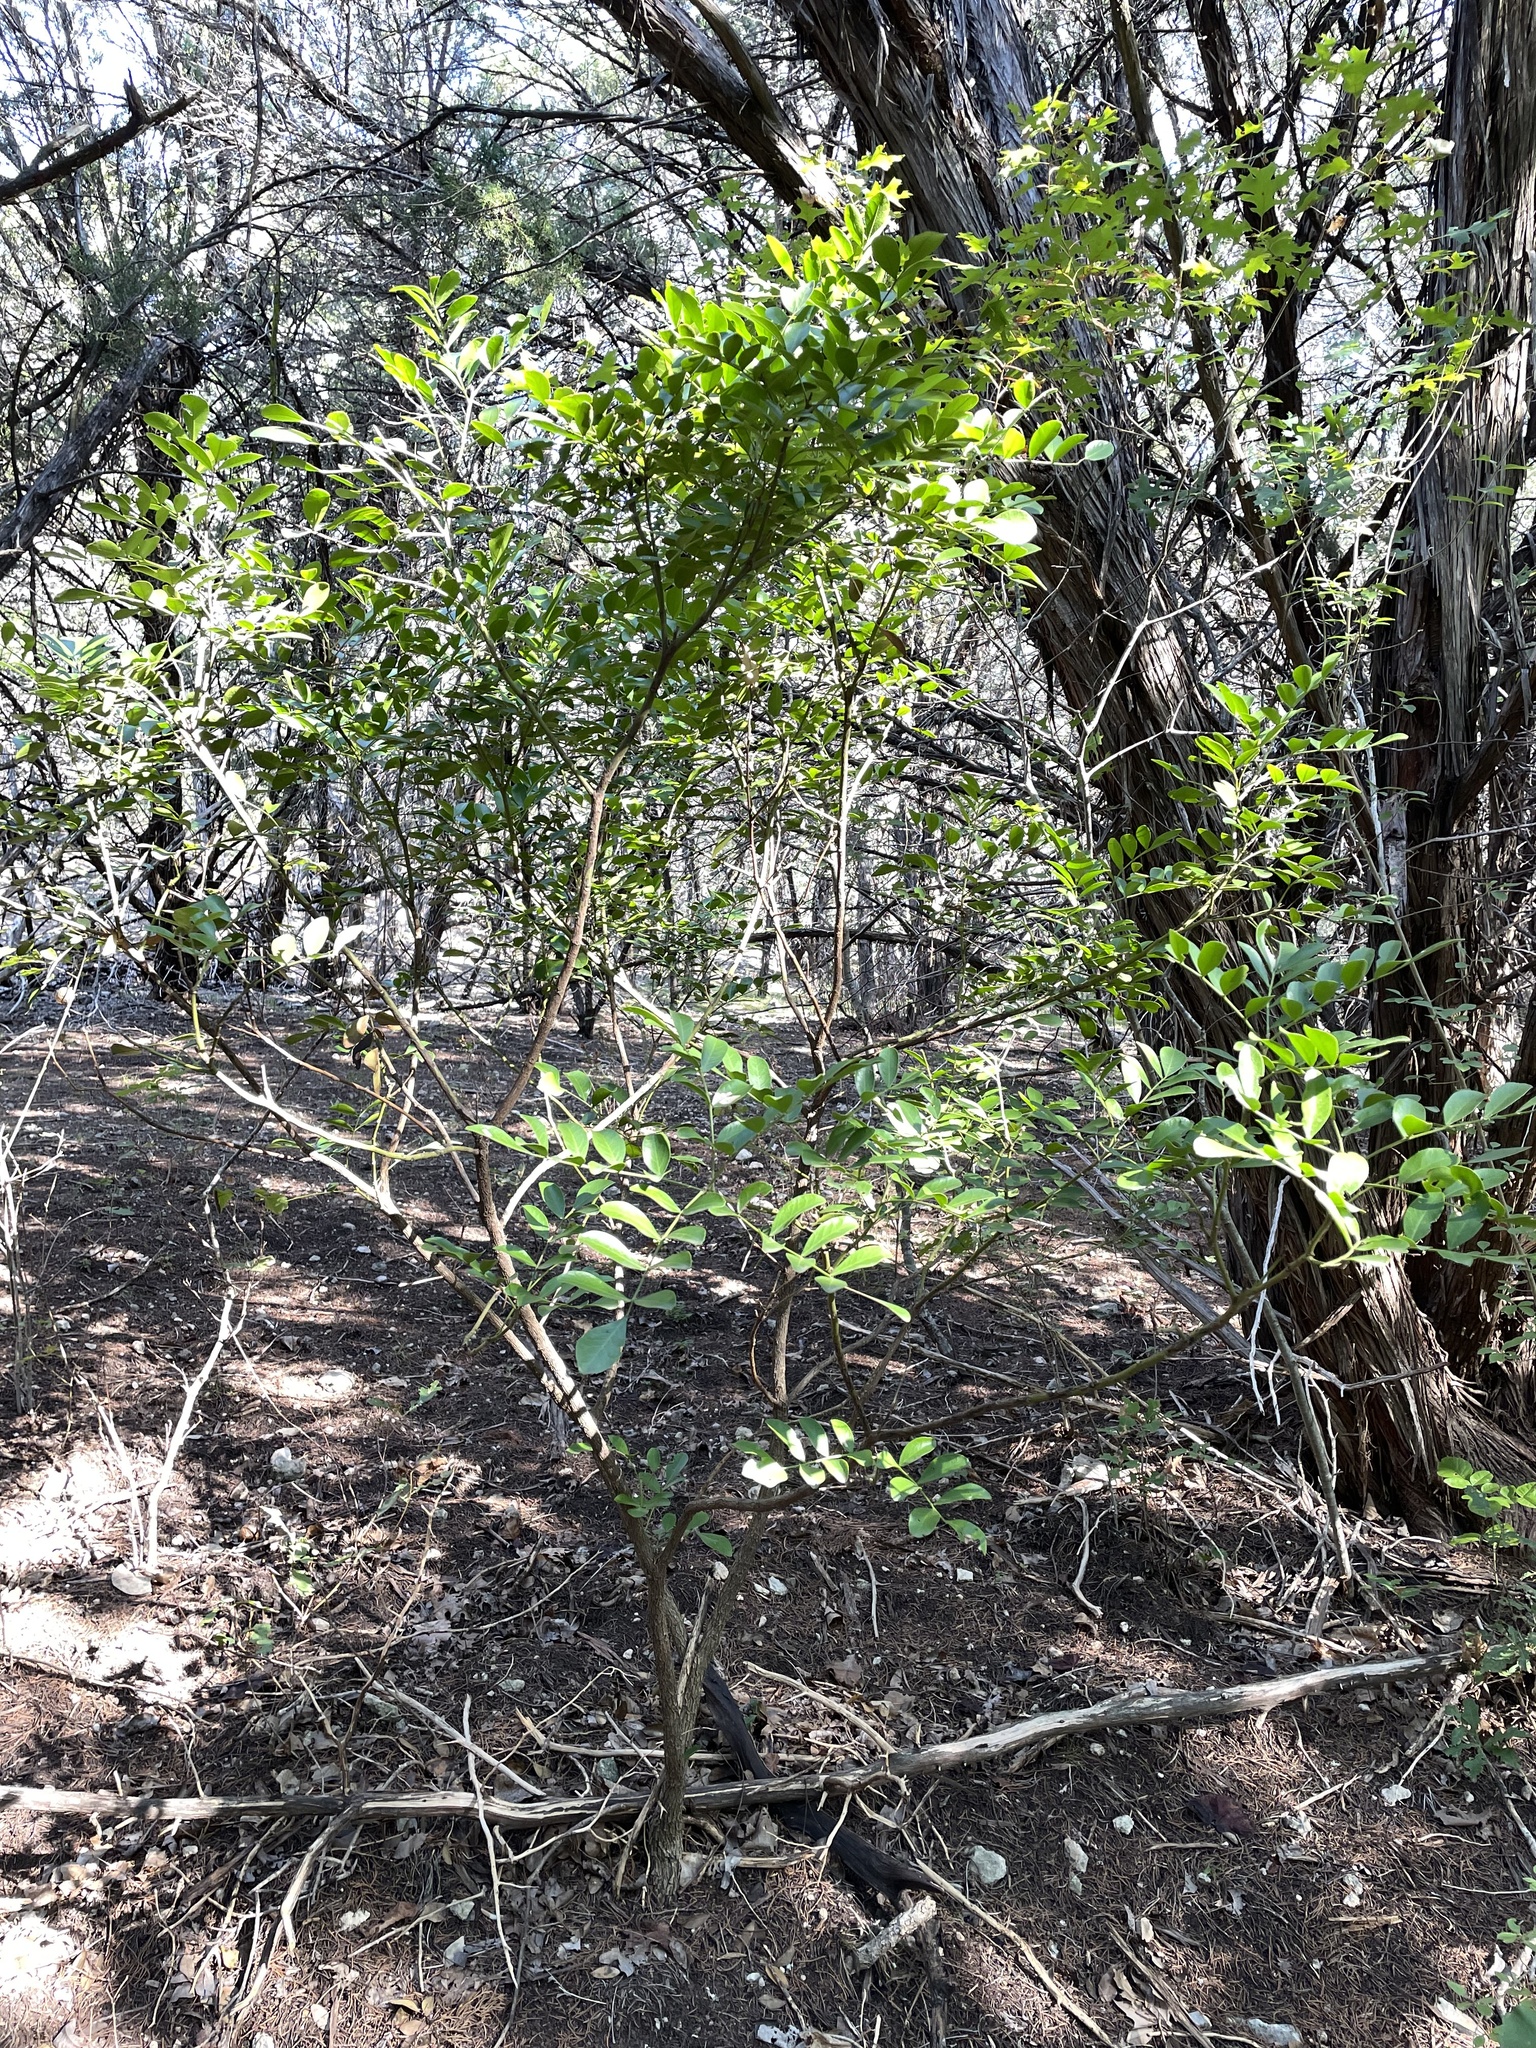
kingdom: Plantae
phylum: Tracheophyta
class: Magnoliopsida
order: Fabales
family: Fabaceae
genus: Dermatophyllum
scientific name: Dermatophyllum secundiflorum
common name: Texas-mountain-laurel
